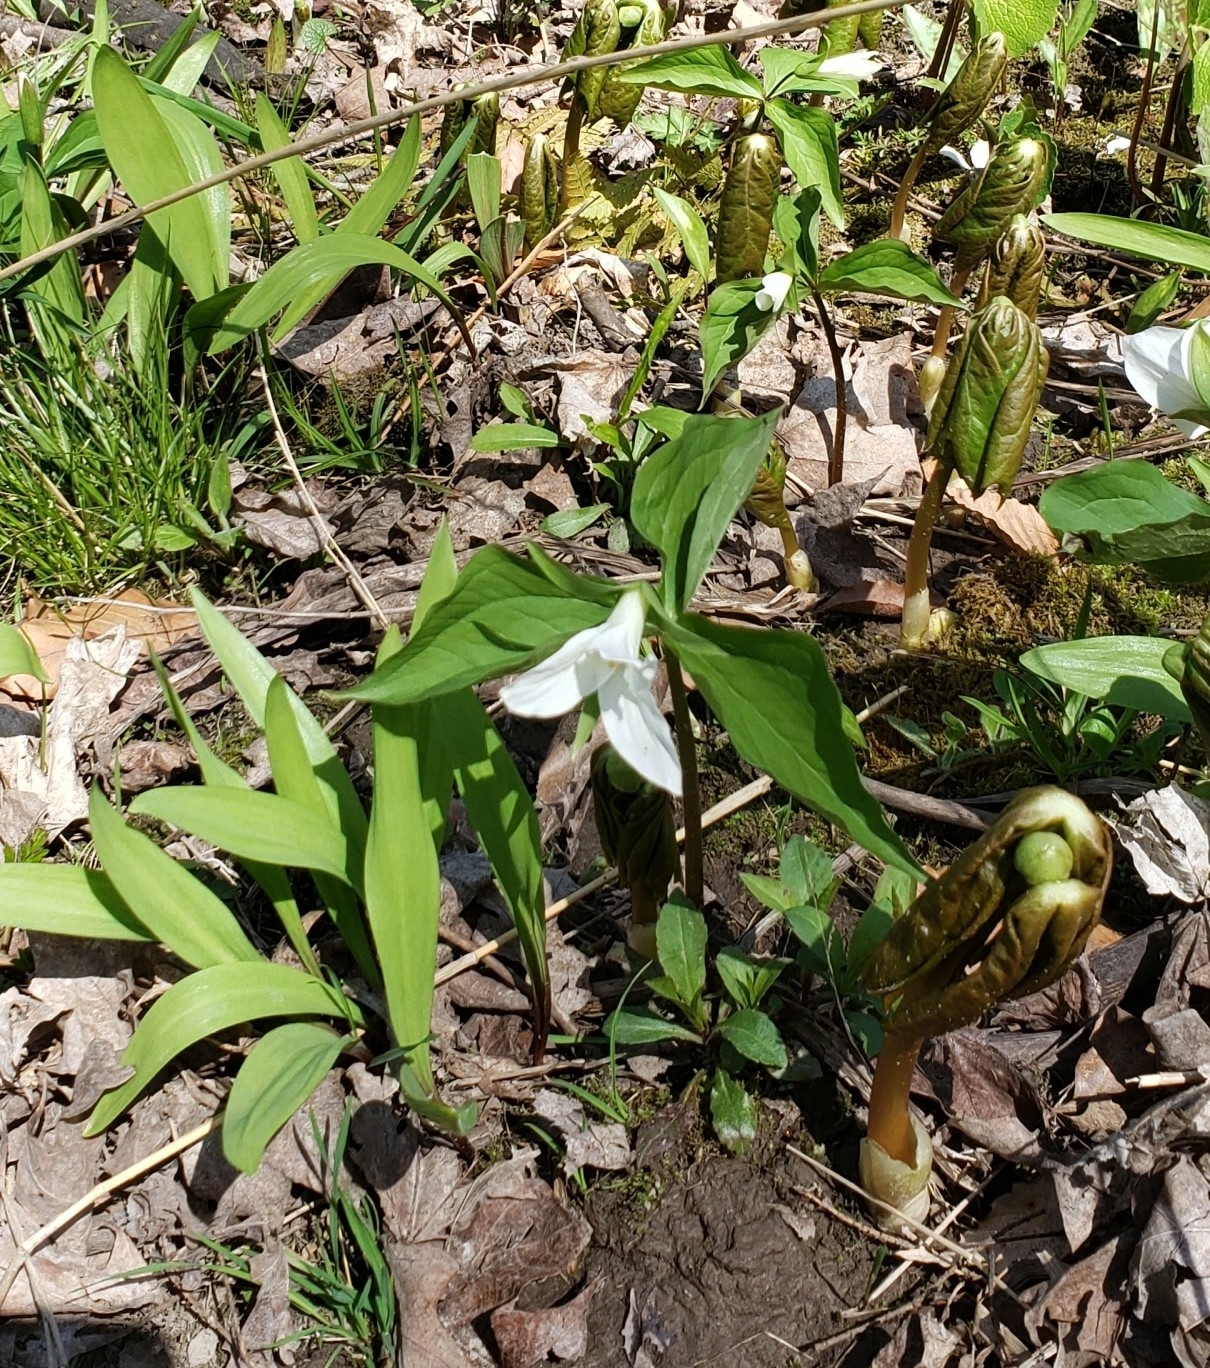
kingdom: Plantae
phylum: Tracheophyta
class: Liliopsida
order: Liliales
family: Melanthiaceae
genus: Trillium
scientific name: Trillium grandiflorum
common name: Great white trillium
